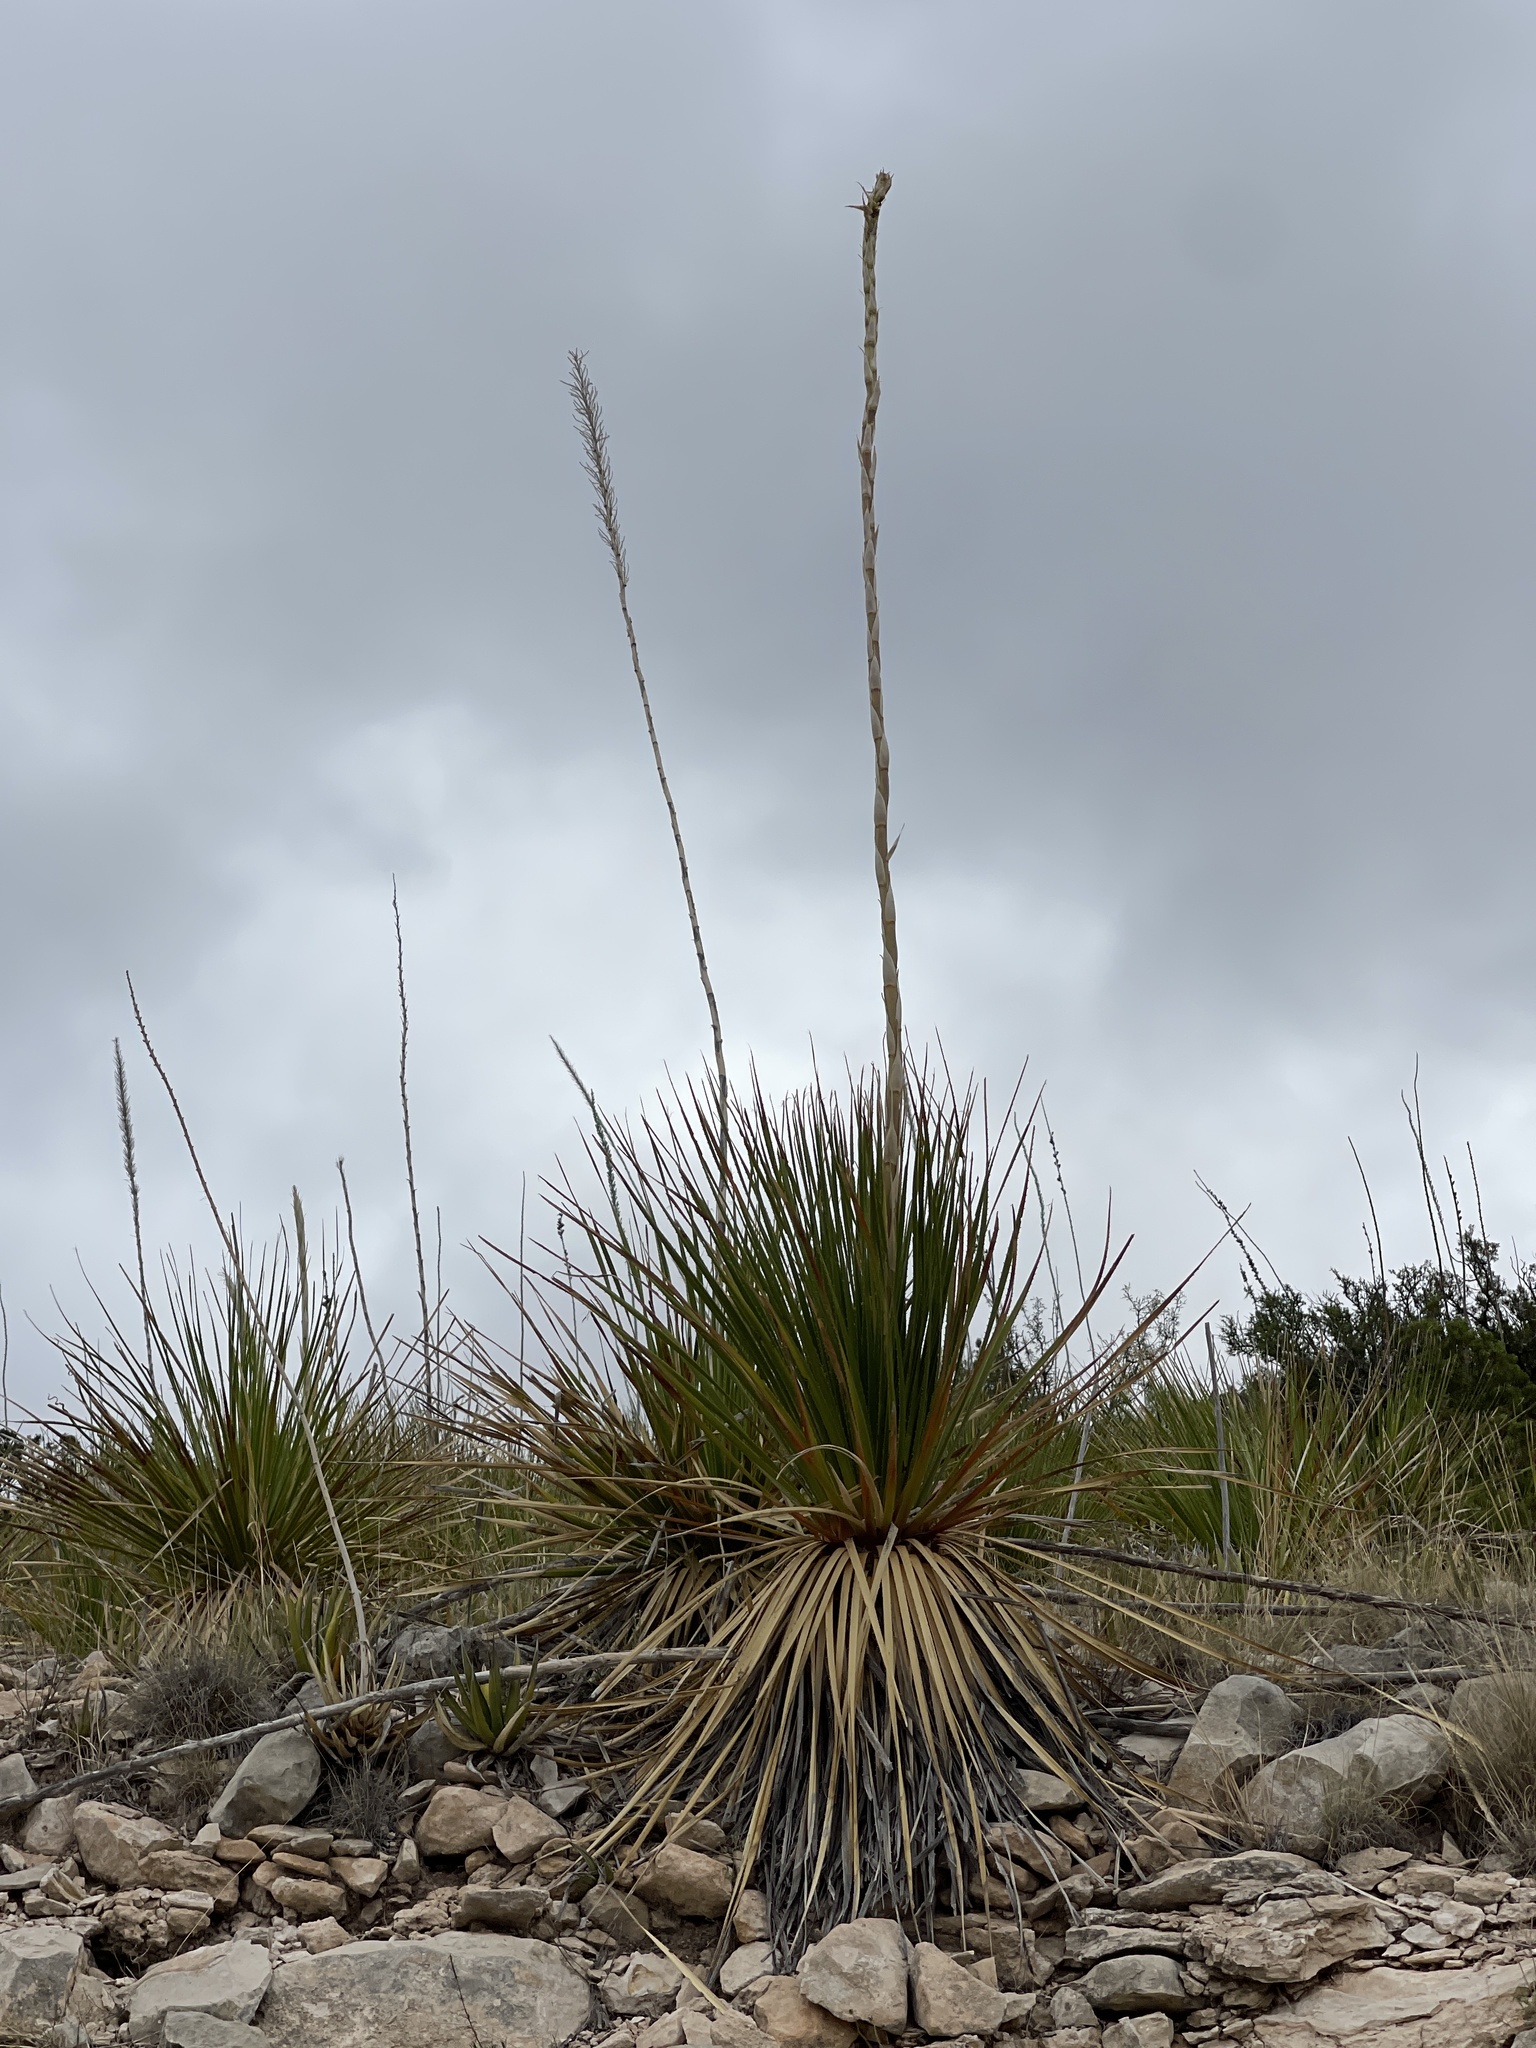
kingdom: Plantae
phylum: Tracheophyta
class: Liliopsida
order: Asparagales
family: Asparagaceae
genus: Dasylirion
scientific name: Dasylirion texanum
